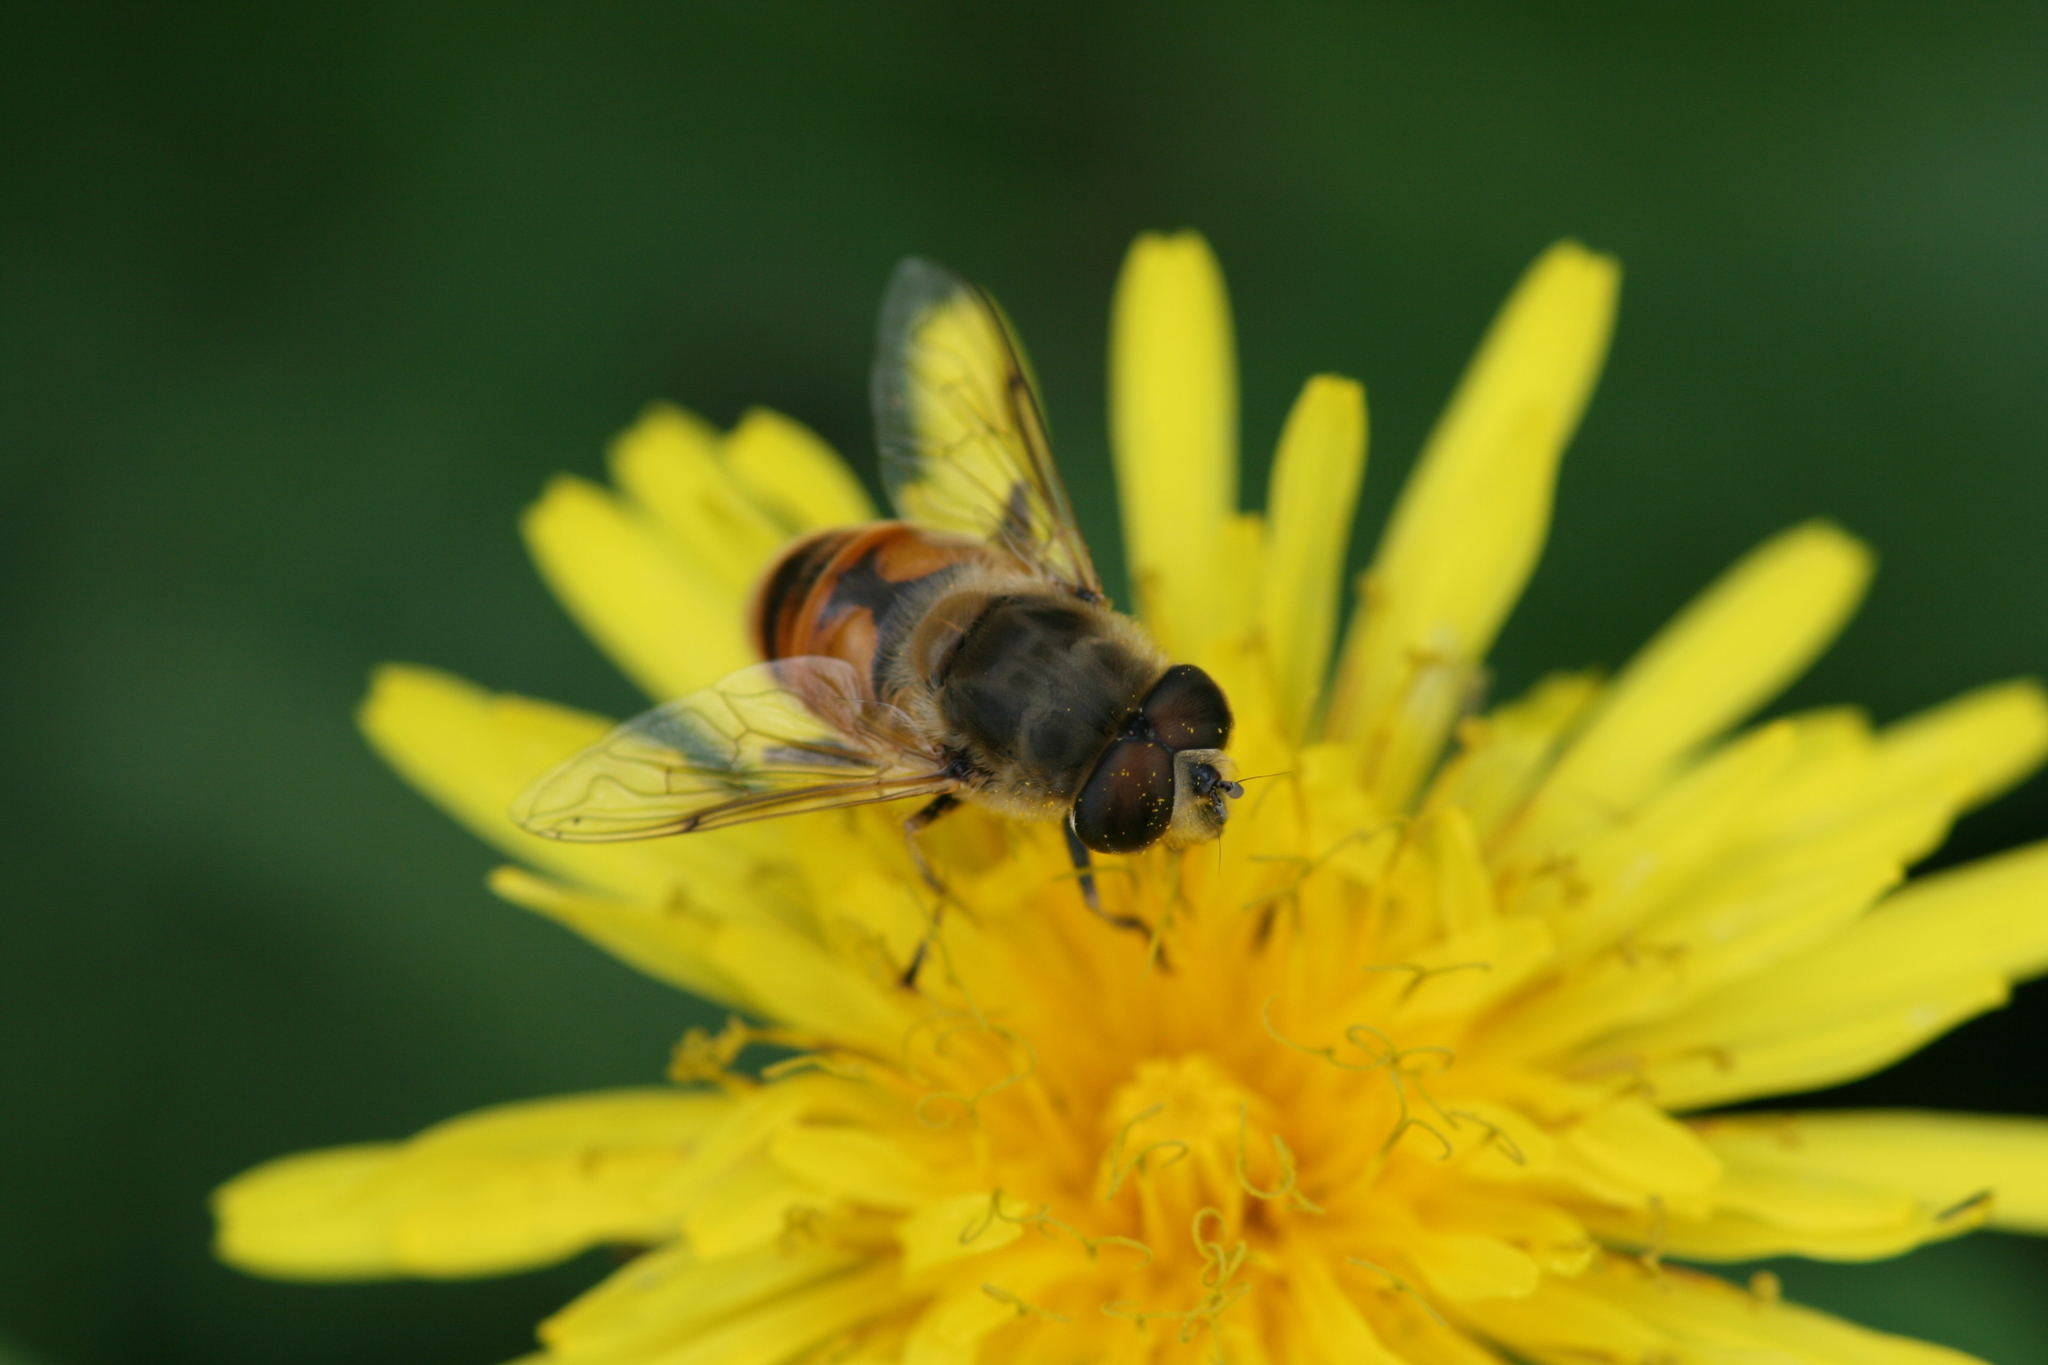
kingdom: Animalia
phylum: Arthropoda
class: Insecta
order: Diptera
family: Syrphidae
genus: Eristalis
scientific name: Eristalis tenax
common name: Drone fly
